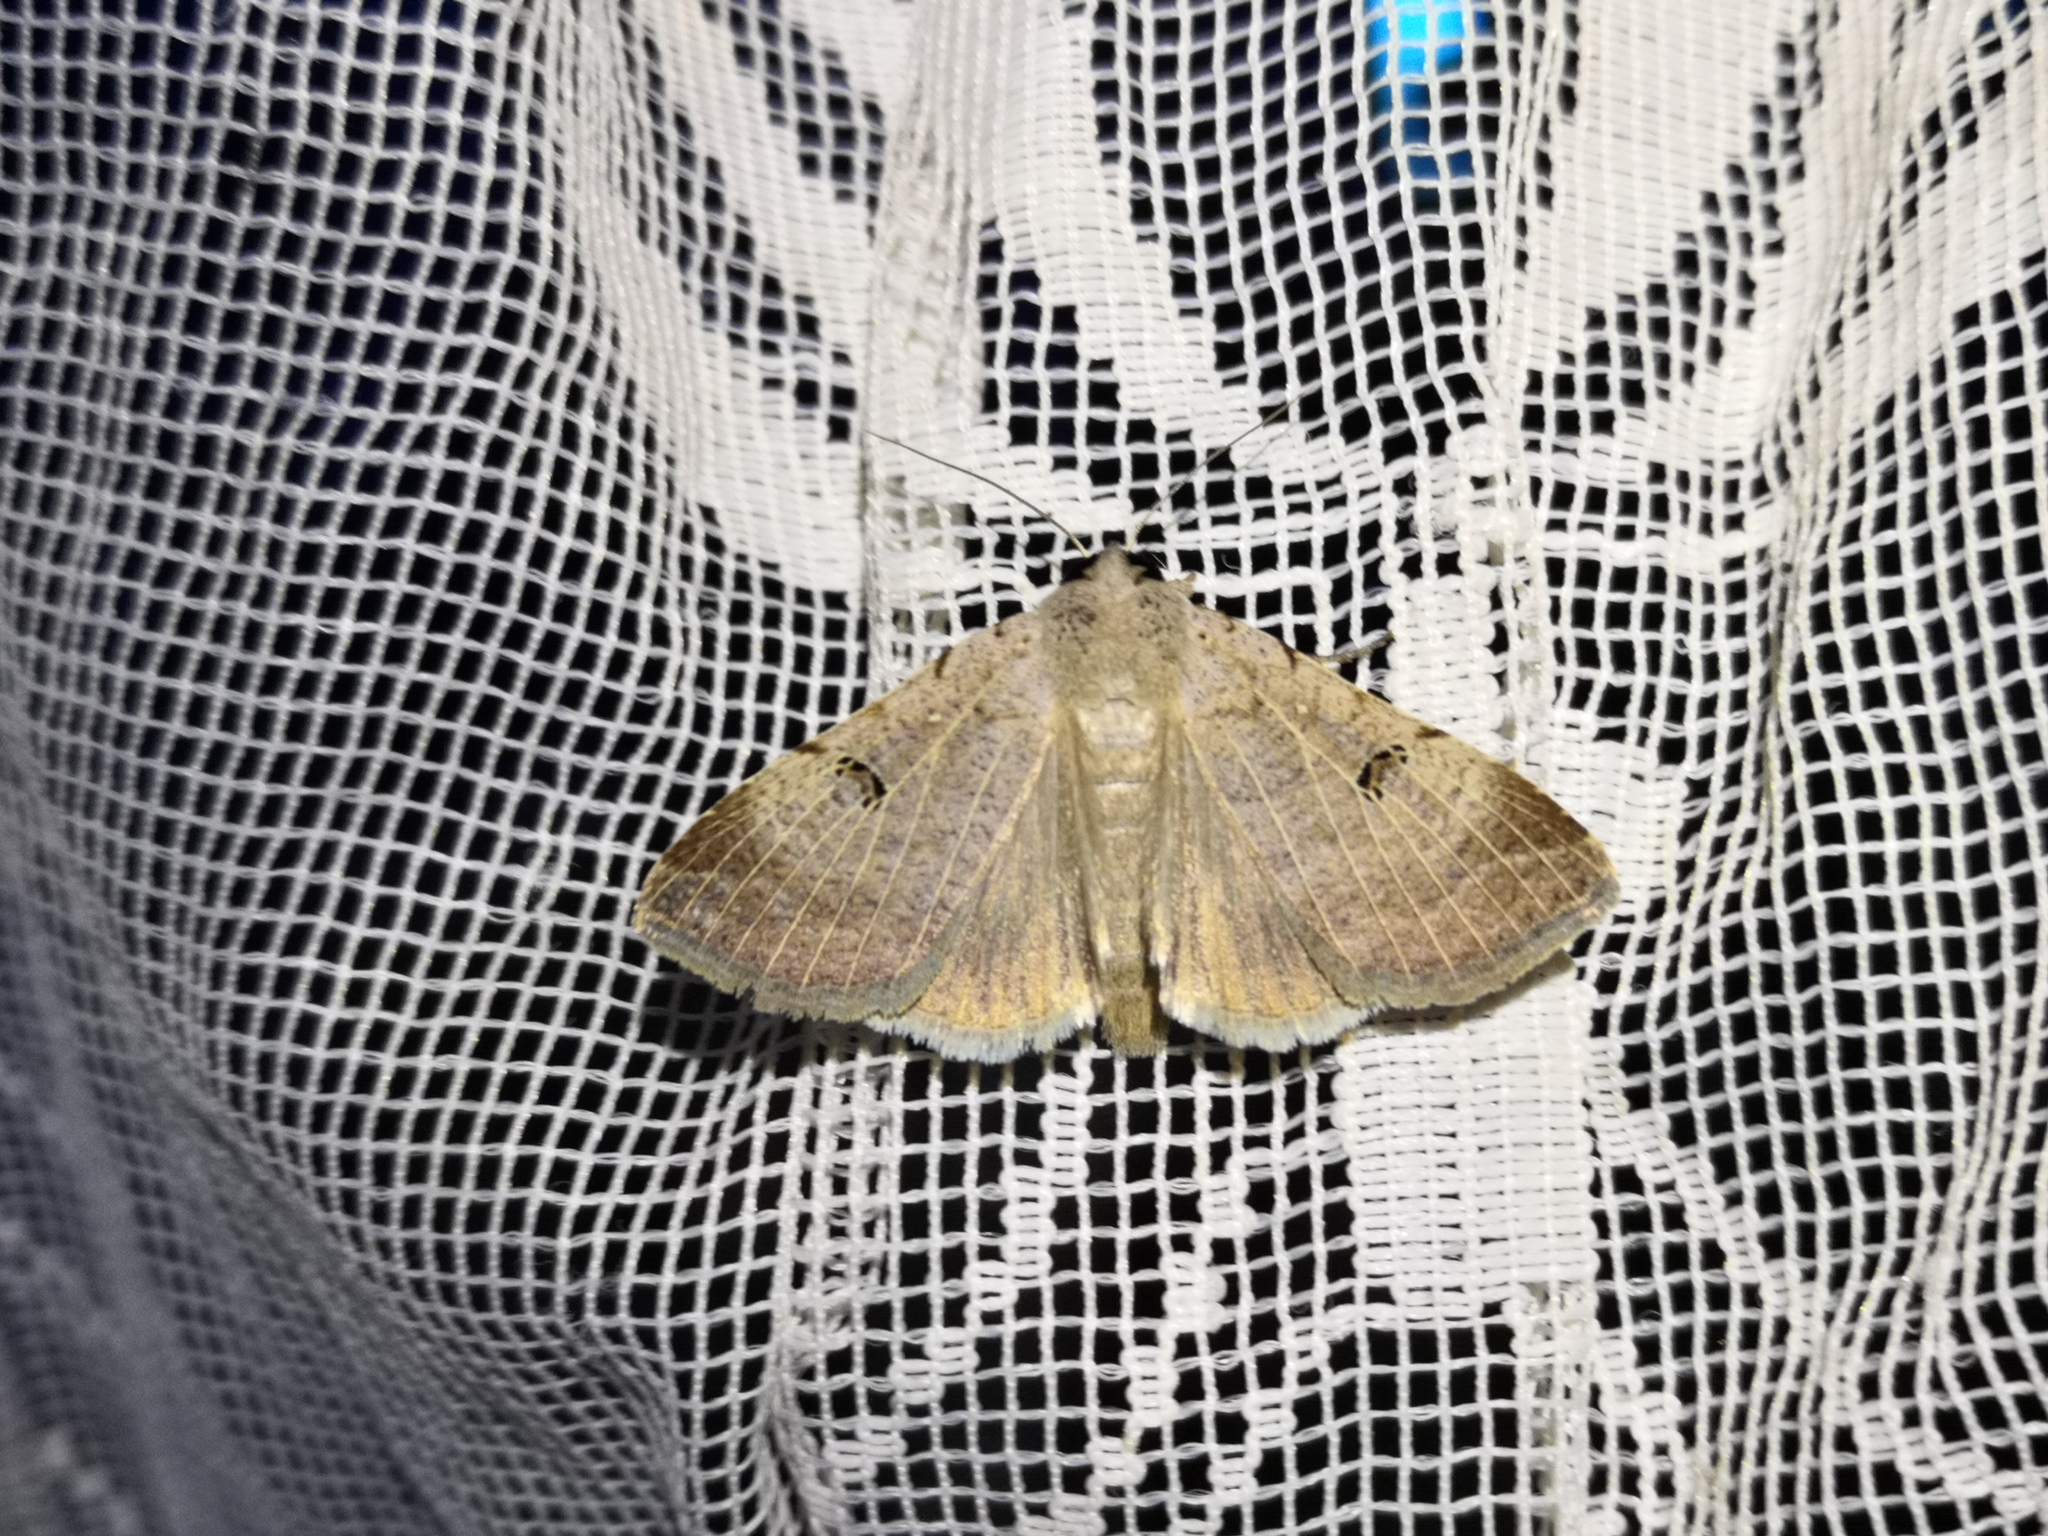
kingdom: Animalia
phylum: Arthropoda
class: Insecta
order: Lepidoptera
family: Erebidae
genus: Lygephila
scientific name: Lygephila craccae
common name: Scarce blackneck
